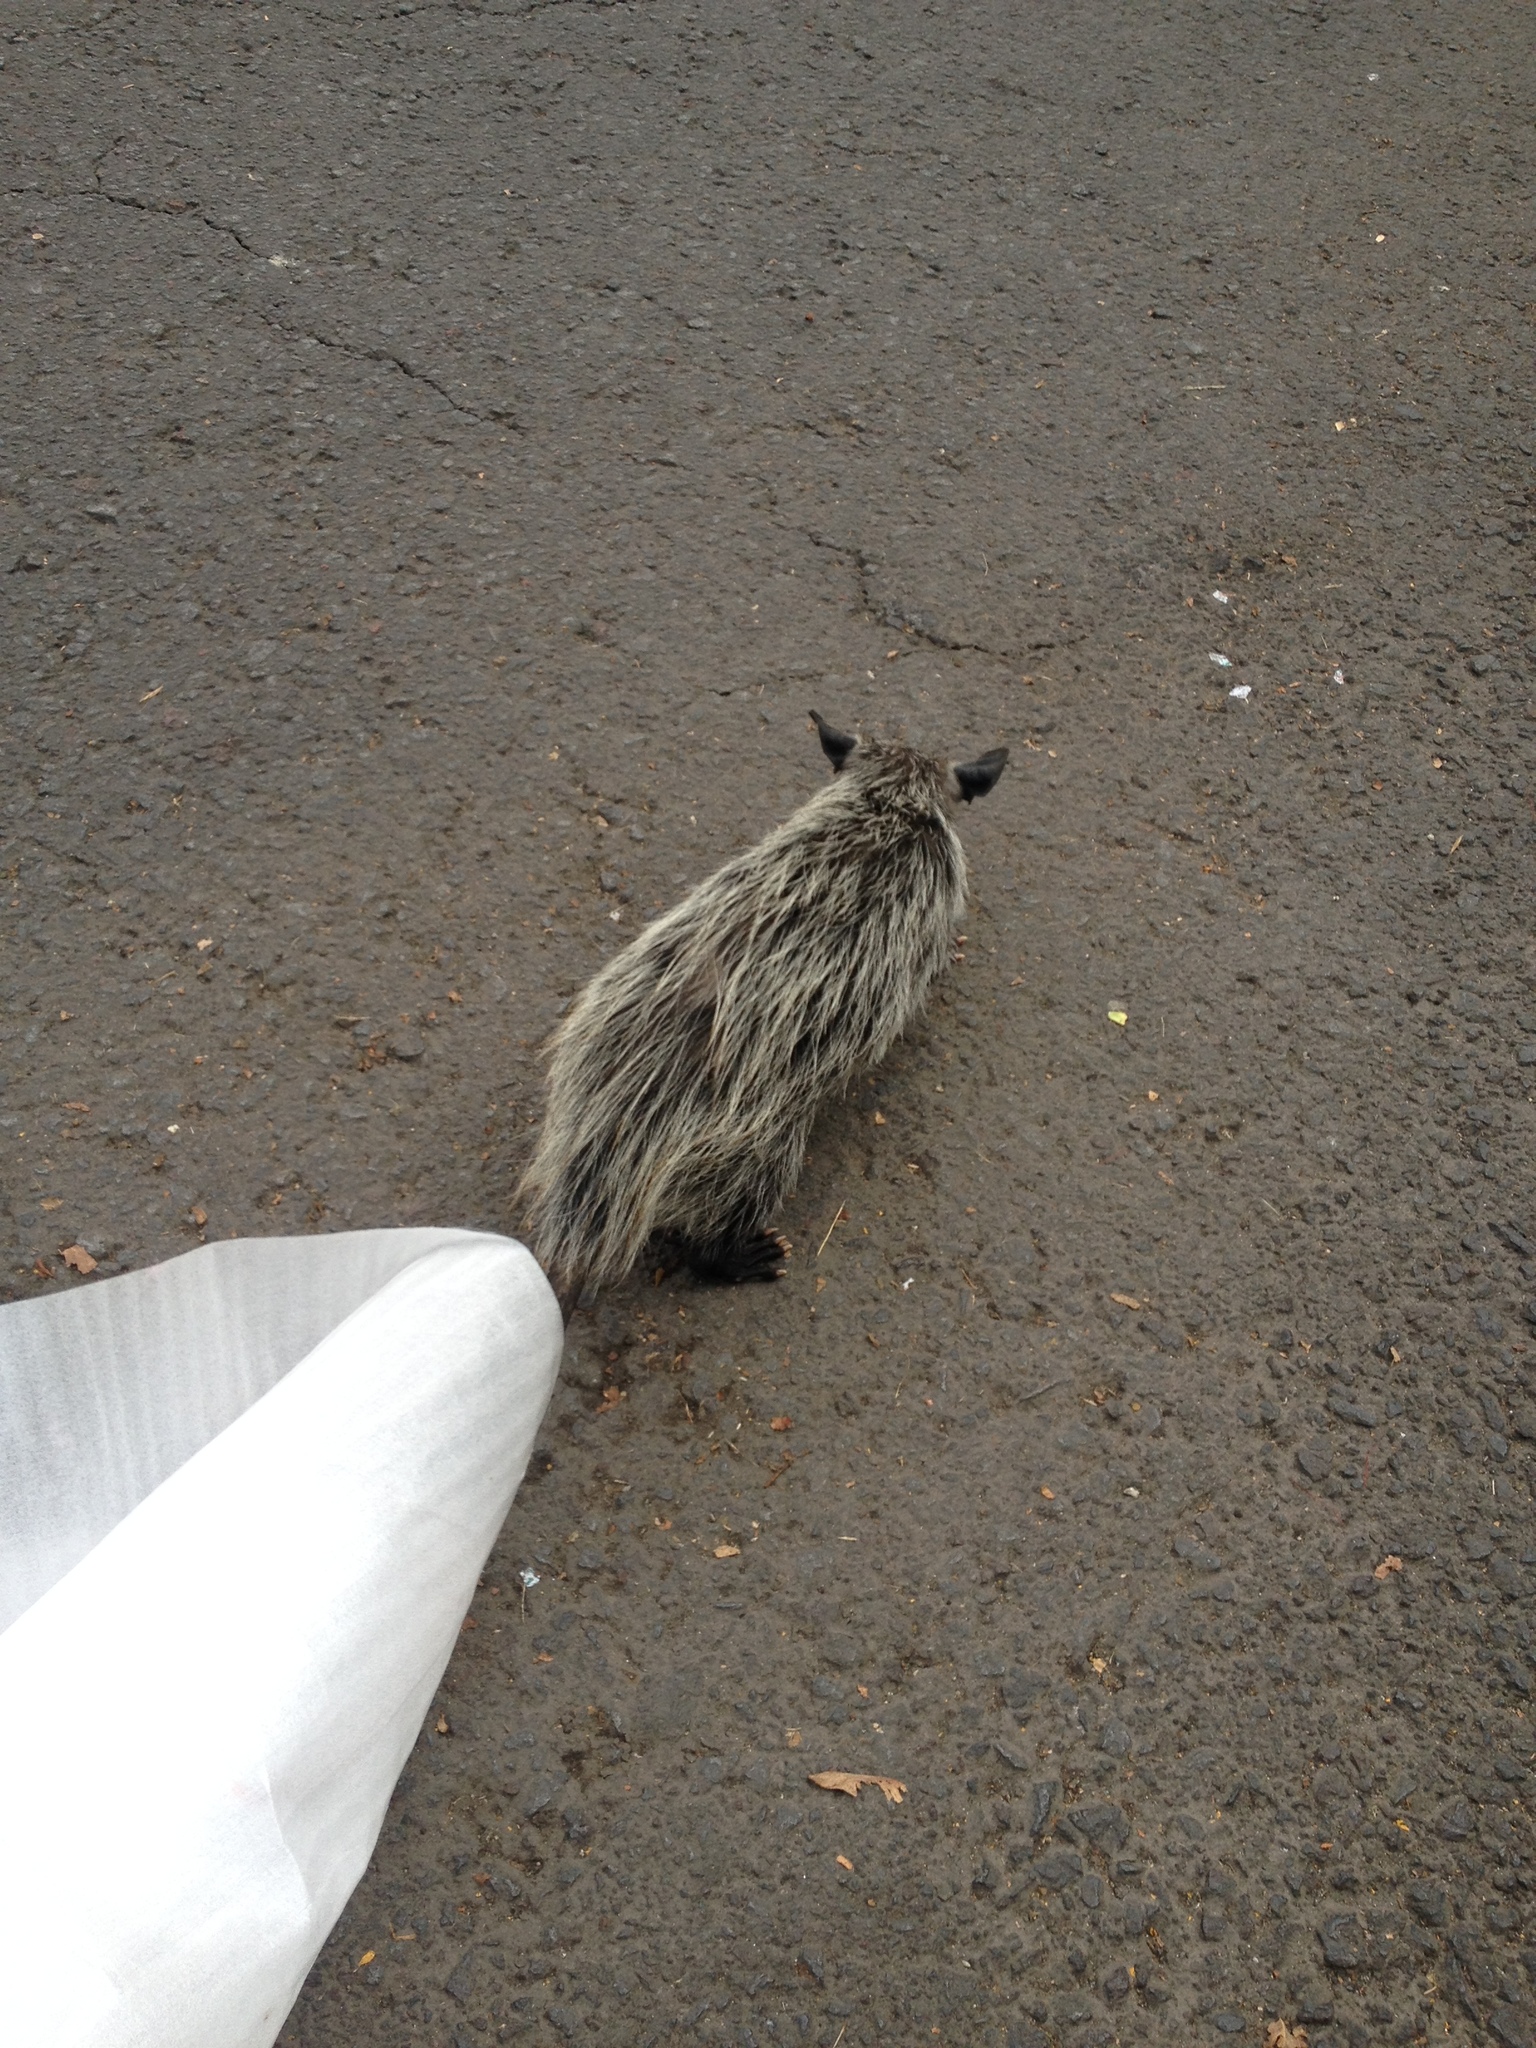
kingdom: Animalia
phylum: Chordata
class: Mammalia
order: Didelphimorphia
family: Didelphidae
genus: Didelphis
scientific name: Didelphis virginiana
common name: Virginia opossum
